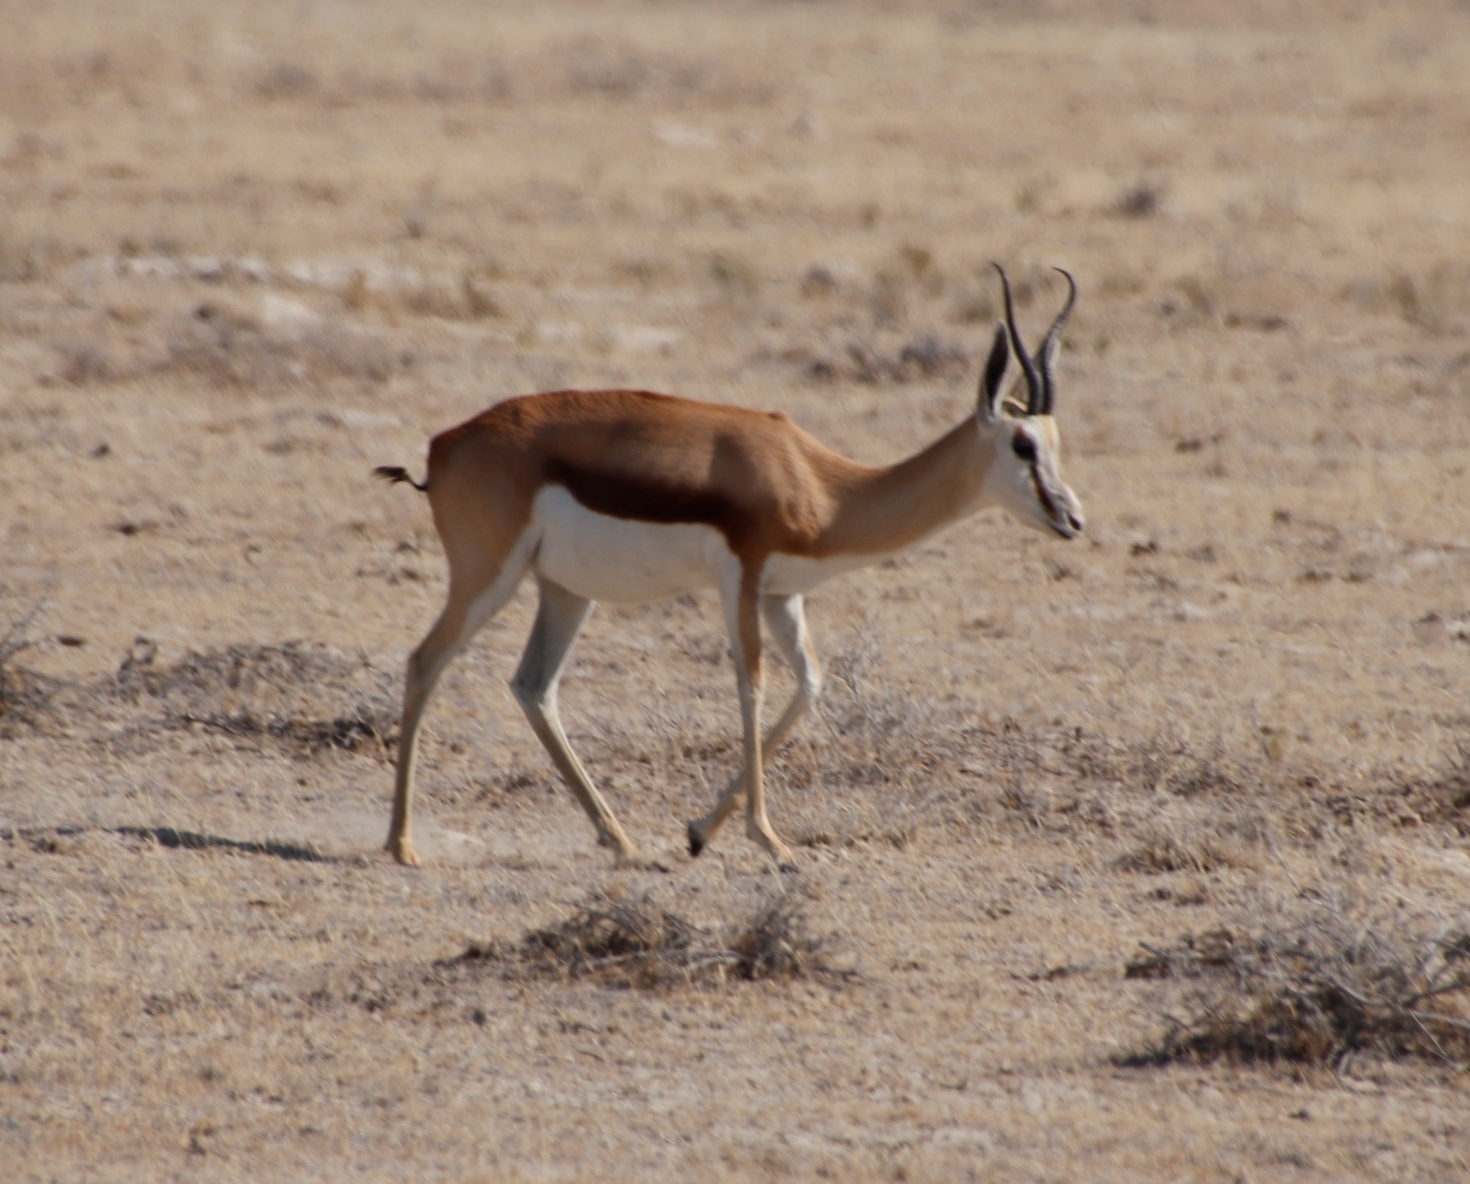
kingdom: Animalia
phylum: Chordata
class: Mammalia
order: Artiodactyla
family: Bovidae
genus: Antidorcas
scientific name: Antidorcas marsupialis
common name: Springbok
